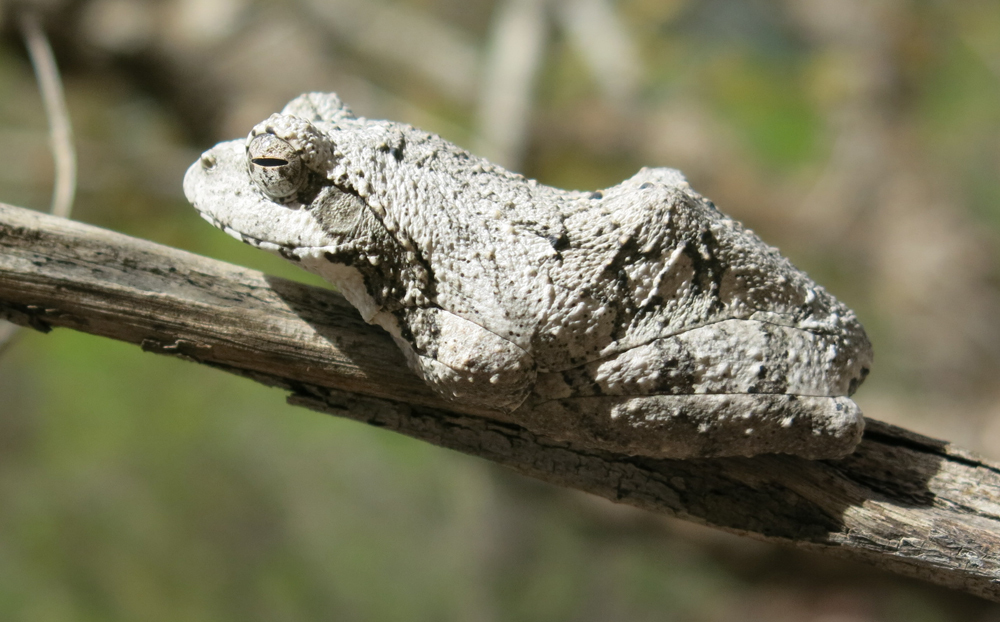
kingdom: Animalia
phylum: Chordata
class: Amphibia
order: Anura
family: Rhacophoridae
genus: Chiromantis
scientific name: Chiromantis xerampelina
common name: African gray treefrog
